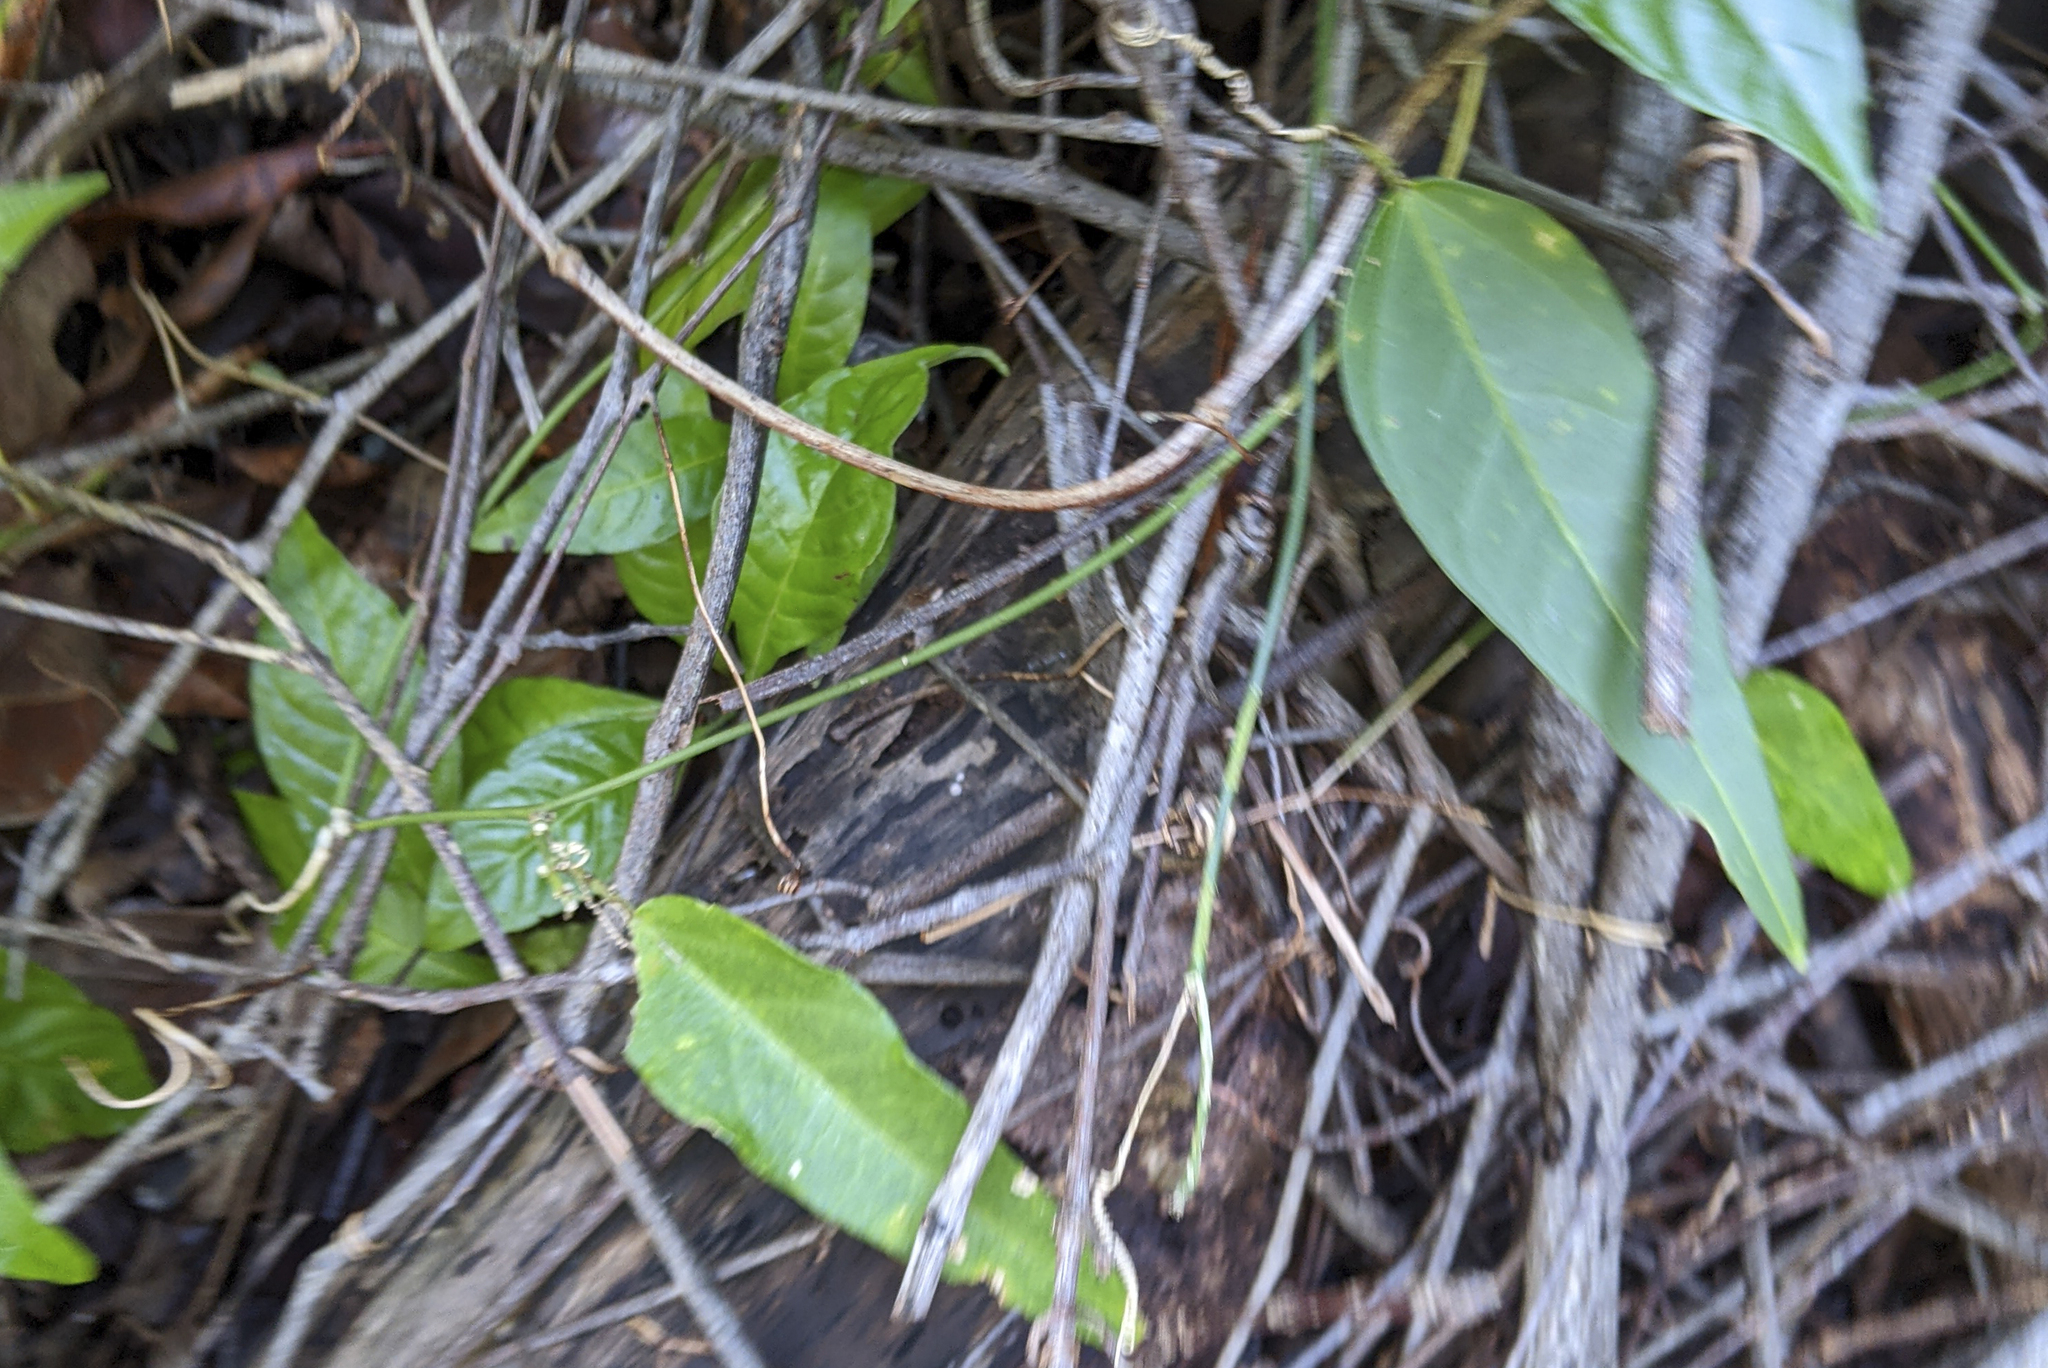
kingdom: Plantae
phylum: Tracheophyta
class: Magnoliopsida
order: Malpighiales
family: Passifloraceae
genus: Passiflora
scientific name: Passiflora pallida
